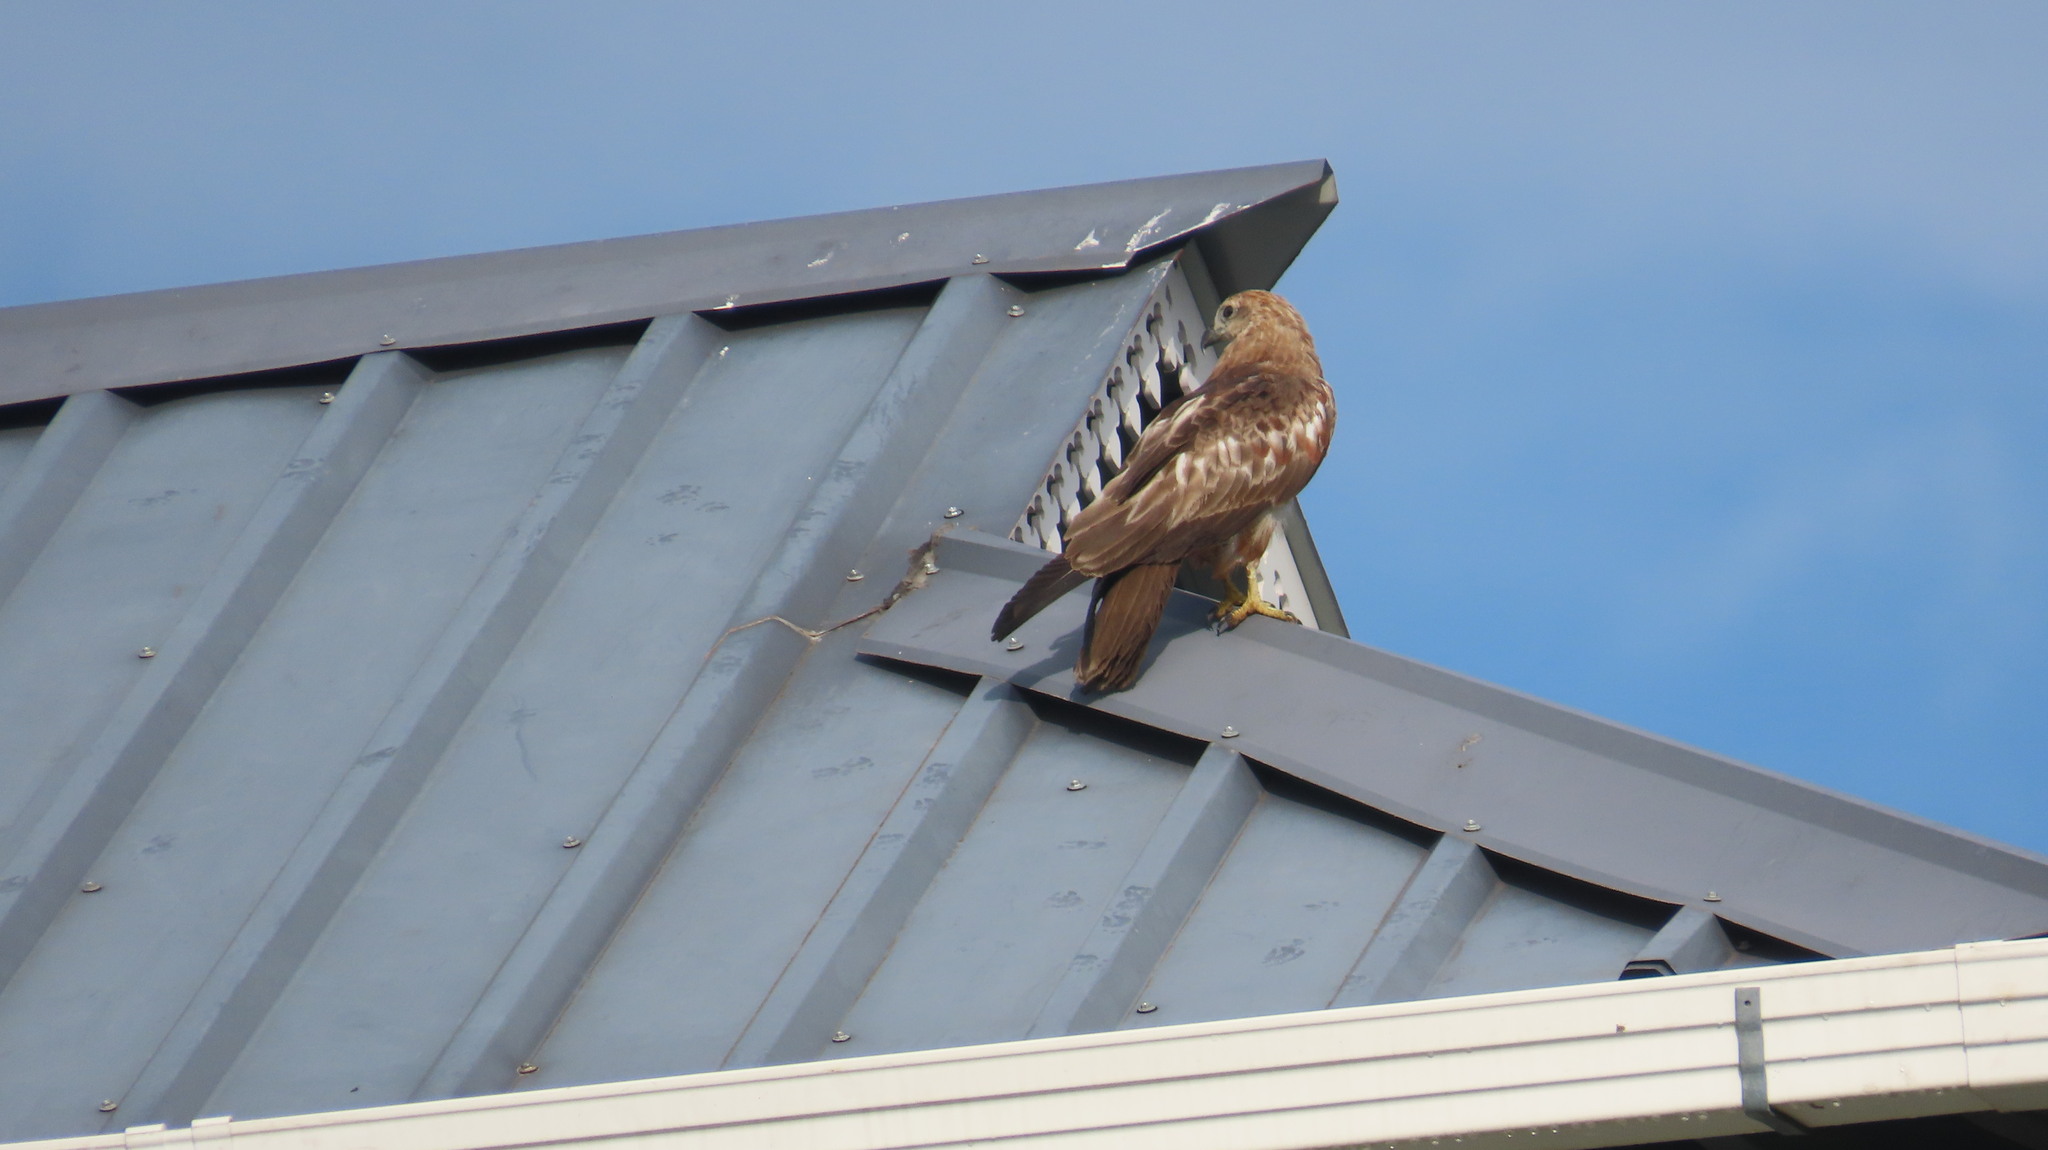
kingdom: Animalia
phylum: Chordata
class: Aves
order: Accipitriformes
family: Accipitridae
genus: Haliastur
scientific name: Haliastur indus
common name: Brahminy kite
